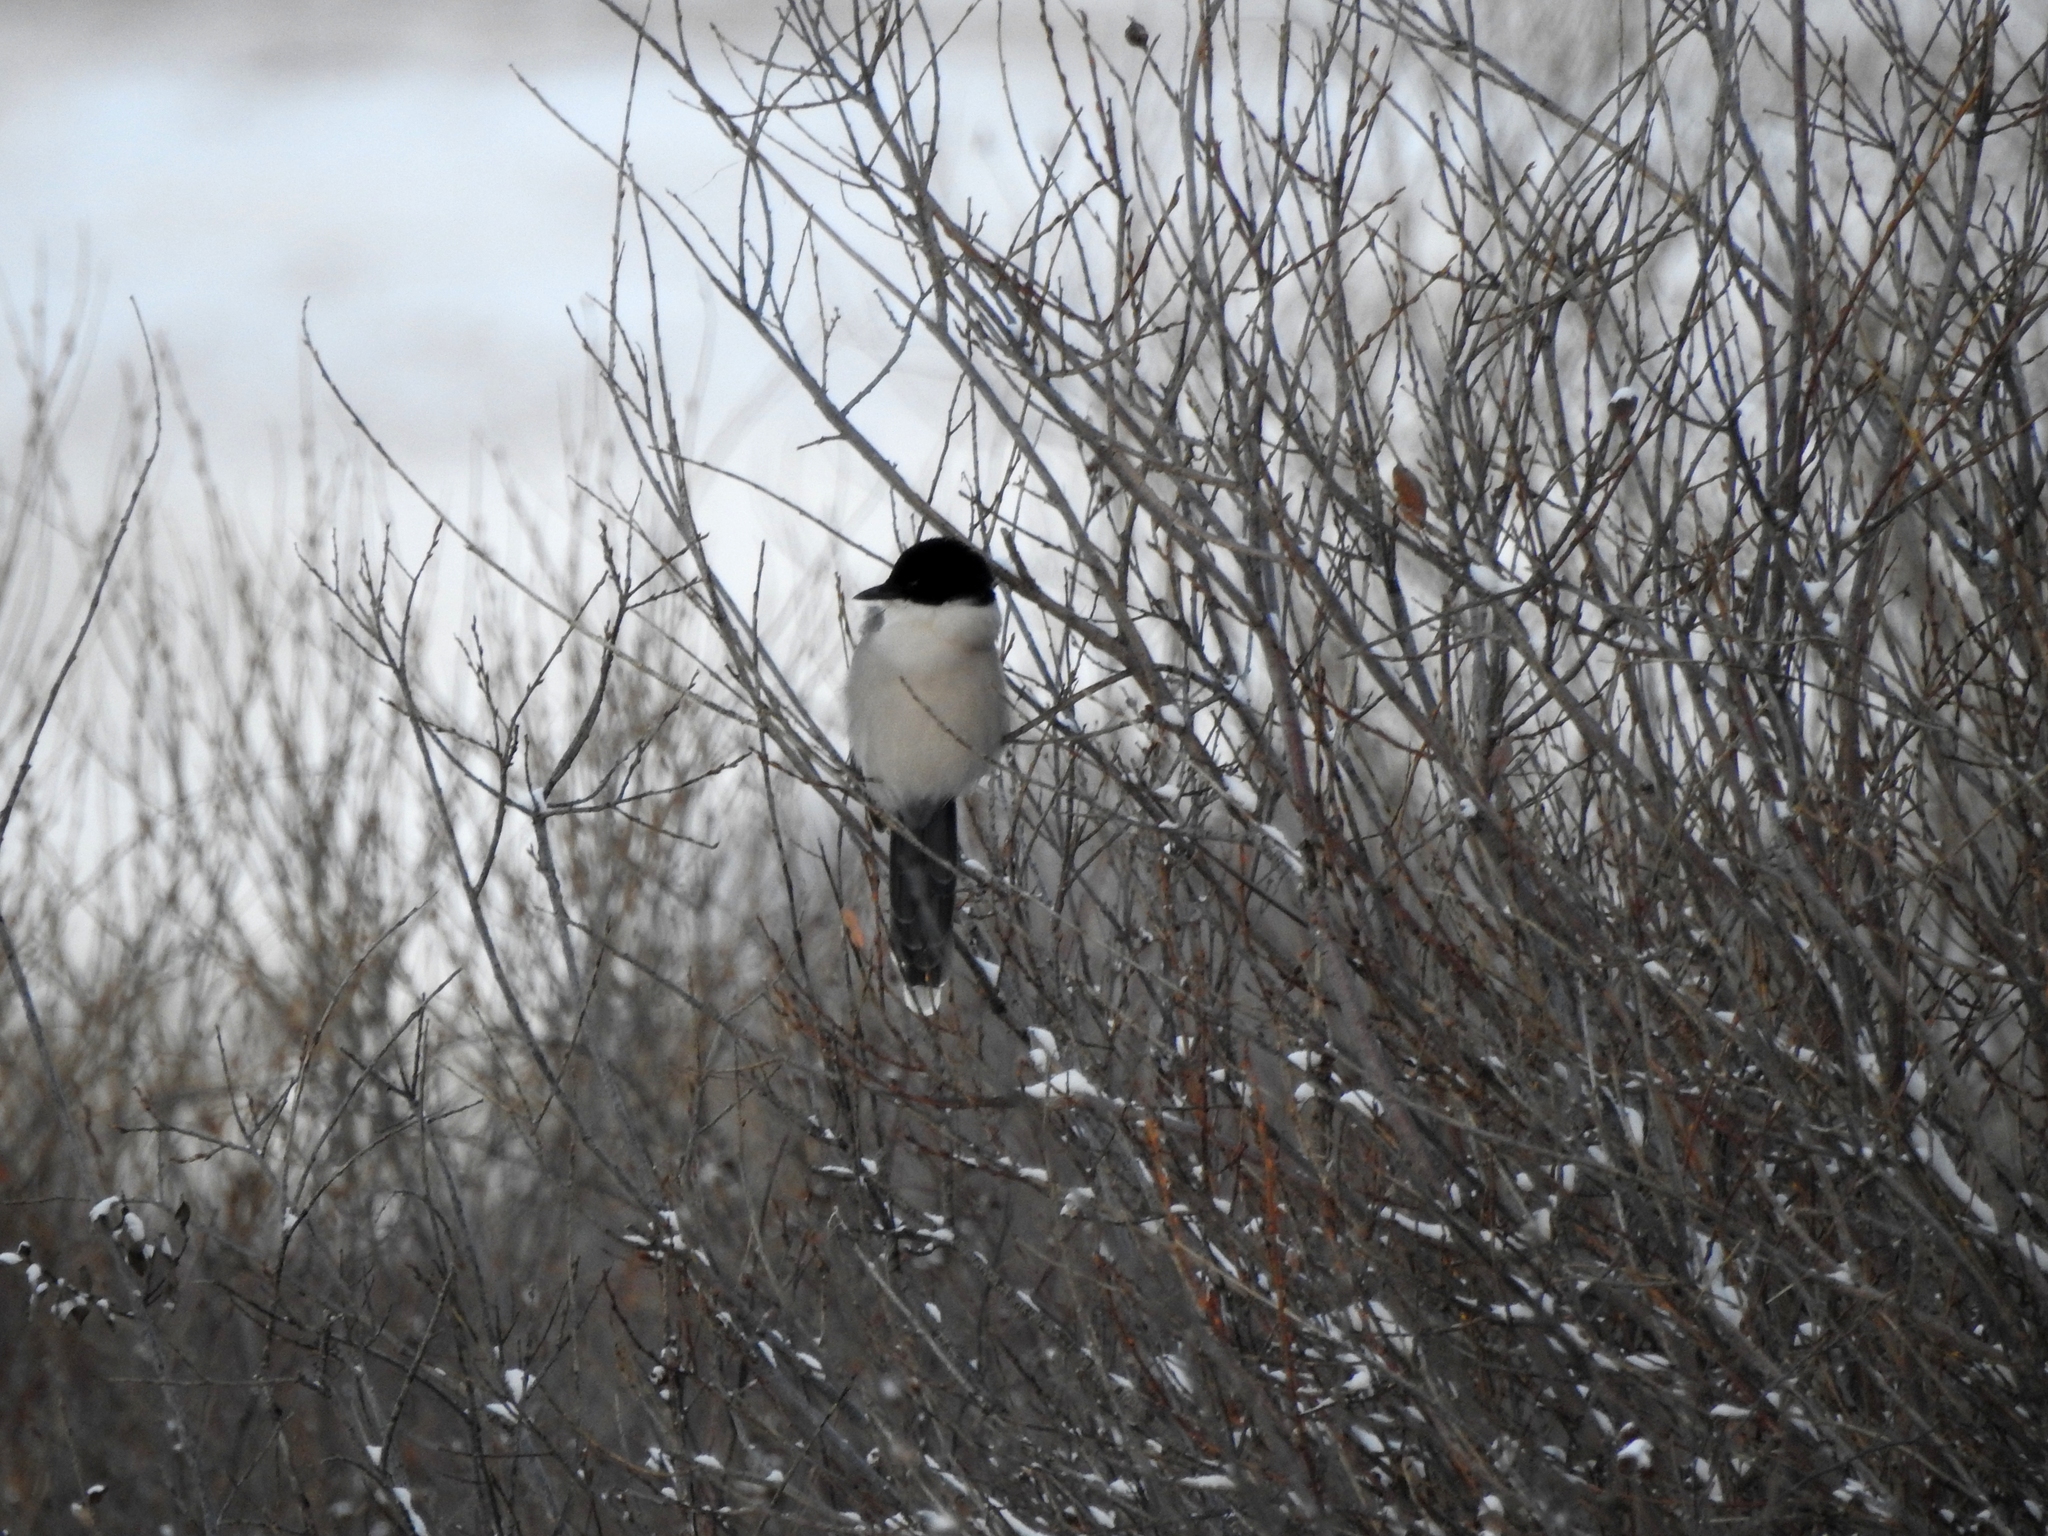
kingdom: Animalia
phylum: Chordata
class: Aves
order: Passeriformes
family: Corvidae
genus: Cyanopica
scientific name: Cyanopica cyanus
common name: Azure-winged magpie
